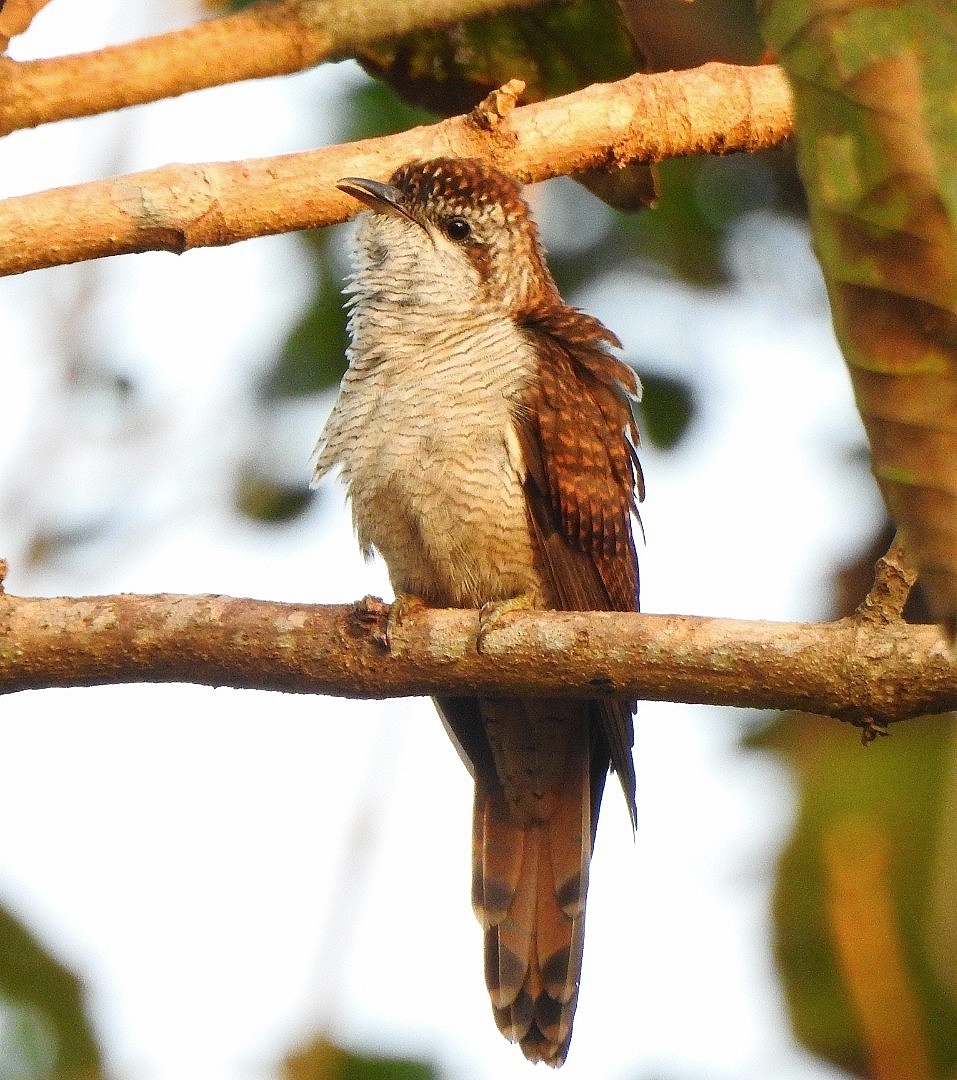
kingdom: Animalia
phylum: Chordata
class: Aves
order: Cuculiformes
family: Cuculidae
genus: Cacomantis
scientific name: Cacomantis sonneratii
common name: Banded bay cuckoo
